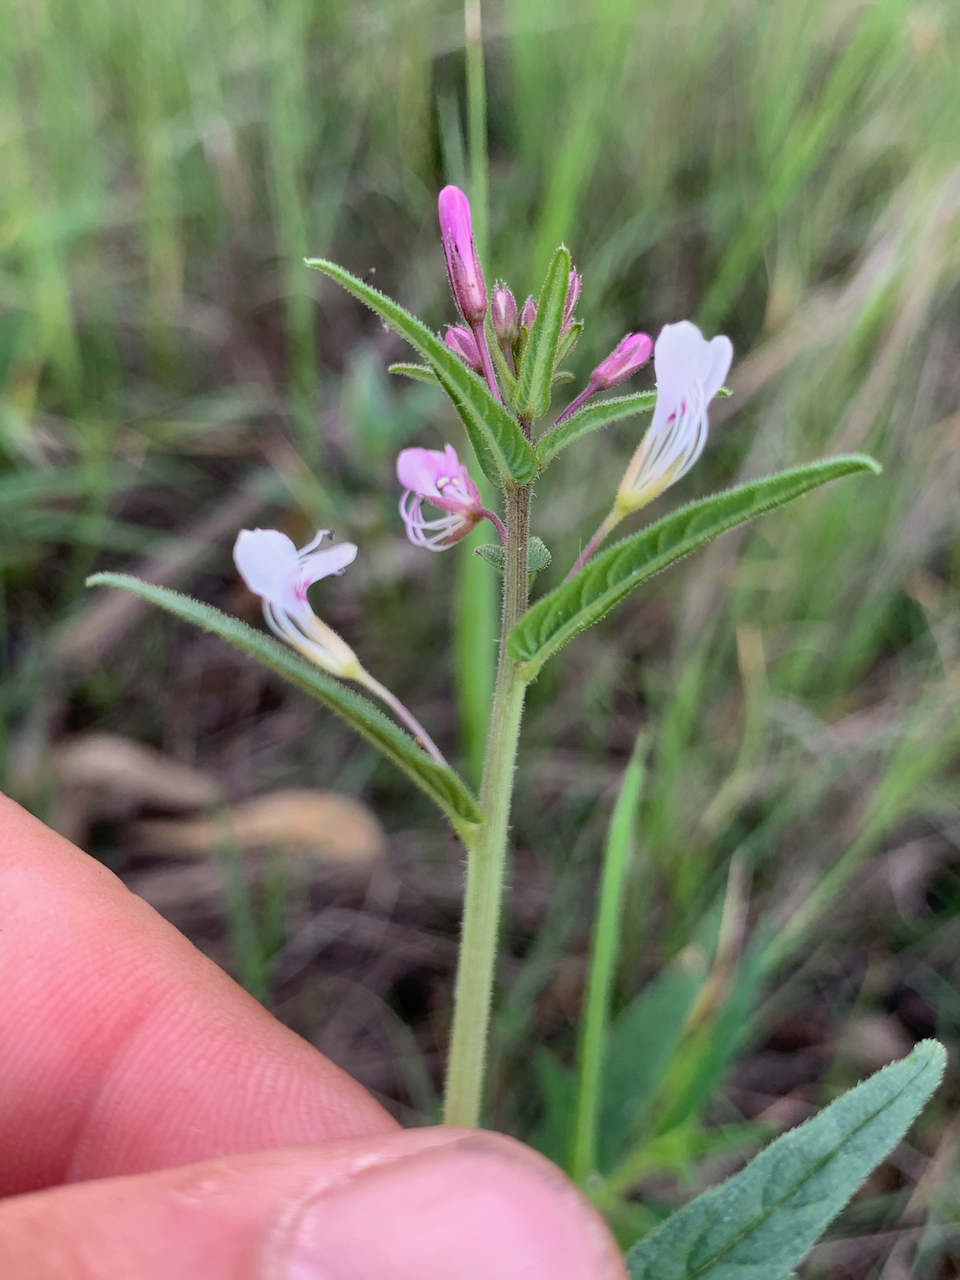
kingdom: Plantae
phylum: Tracheophyta
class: Magnoliopsida
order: Brassicales
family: Cleomaceae
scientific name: Cleomaceae
